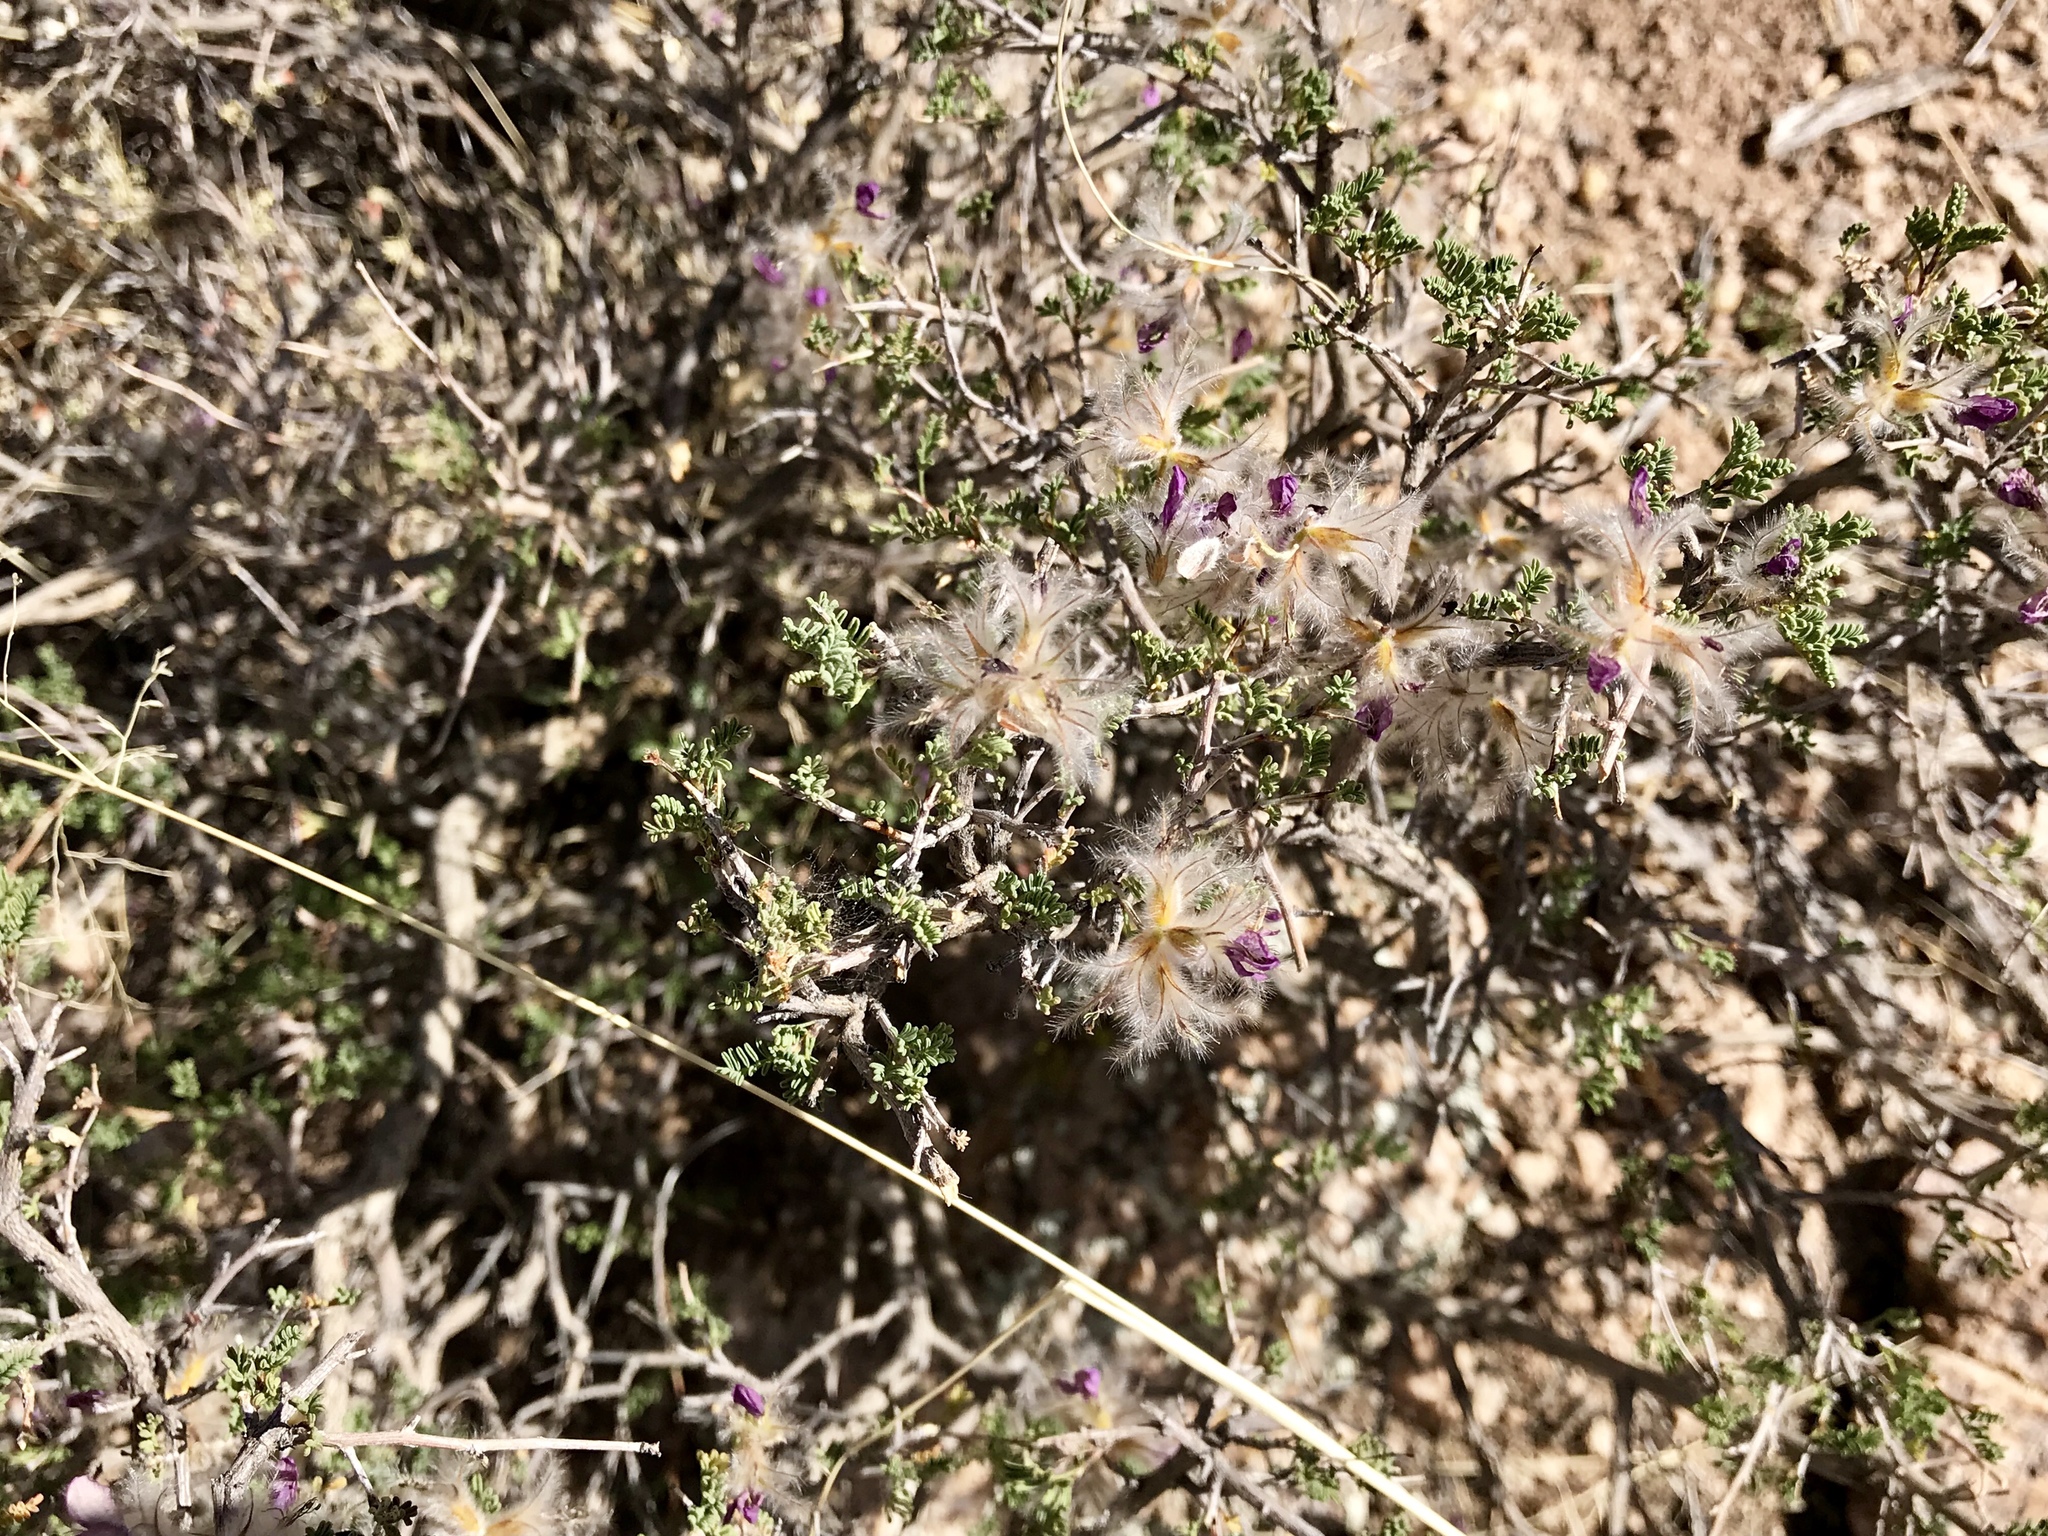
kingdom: Plantae
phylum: Tracheophyta
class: Magnoliopsida
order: Fabales
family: Fabaceae
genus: Dalea
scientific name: Dalea formosa
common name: Feather-plume dalea
